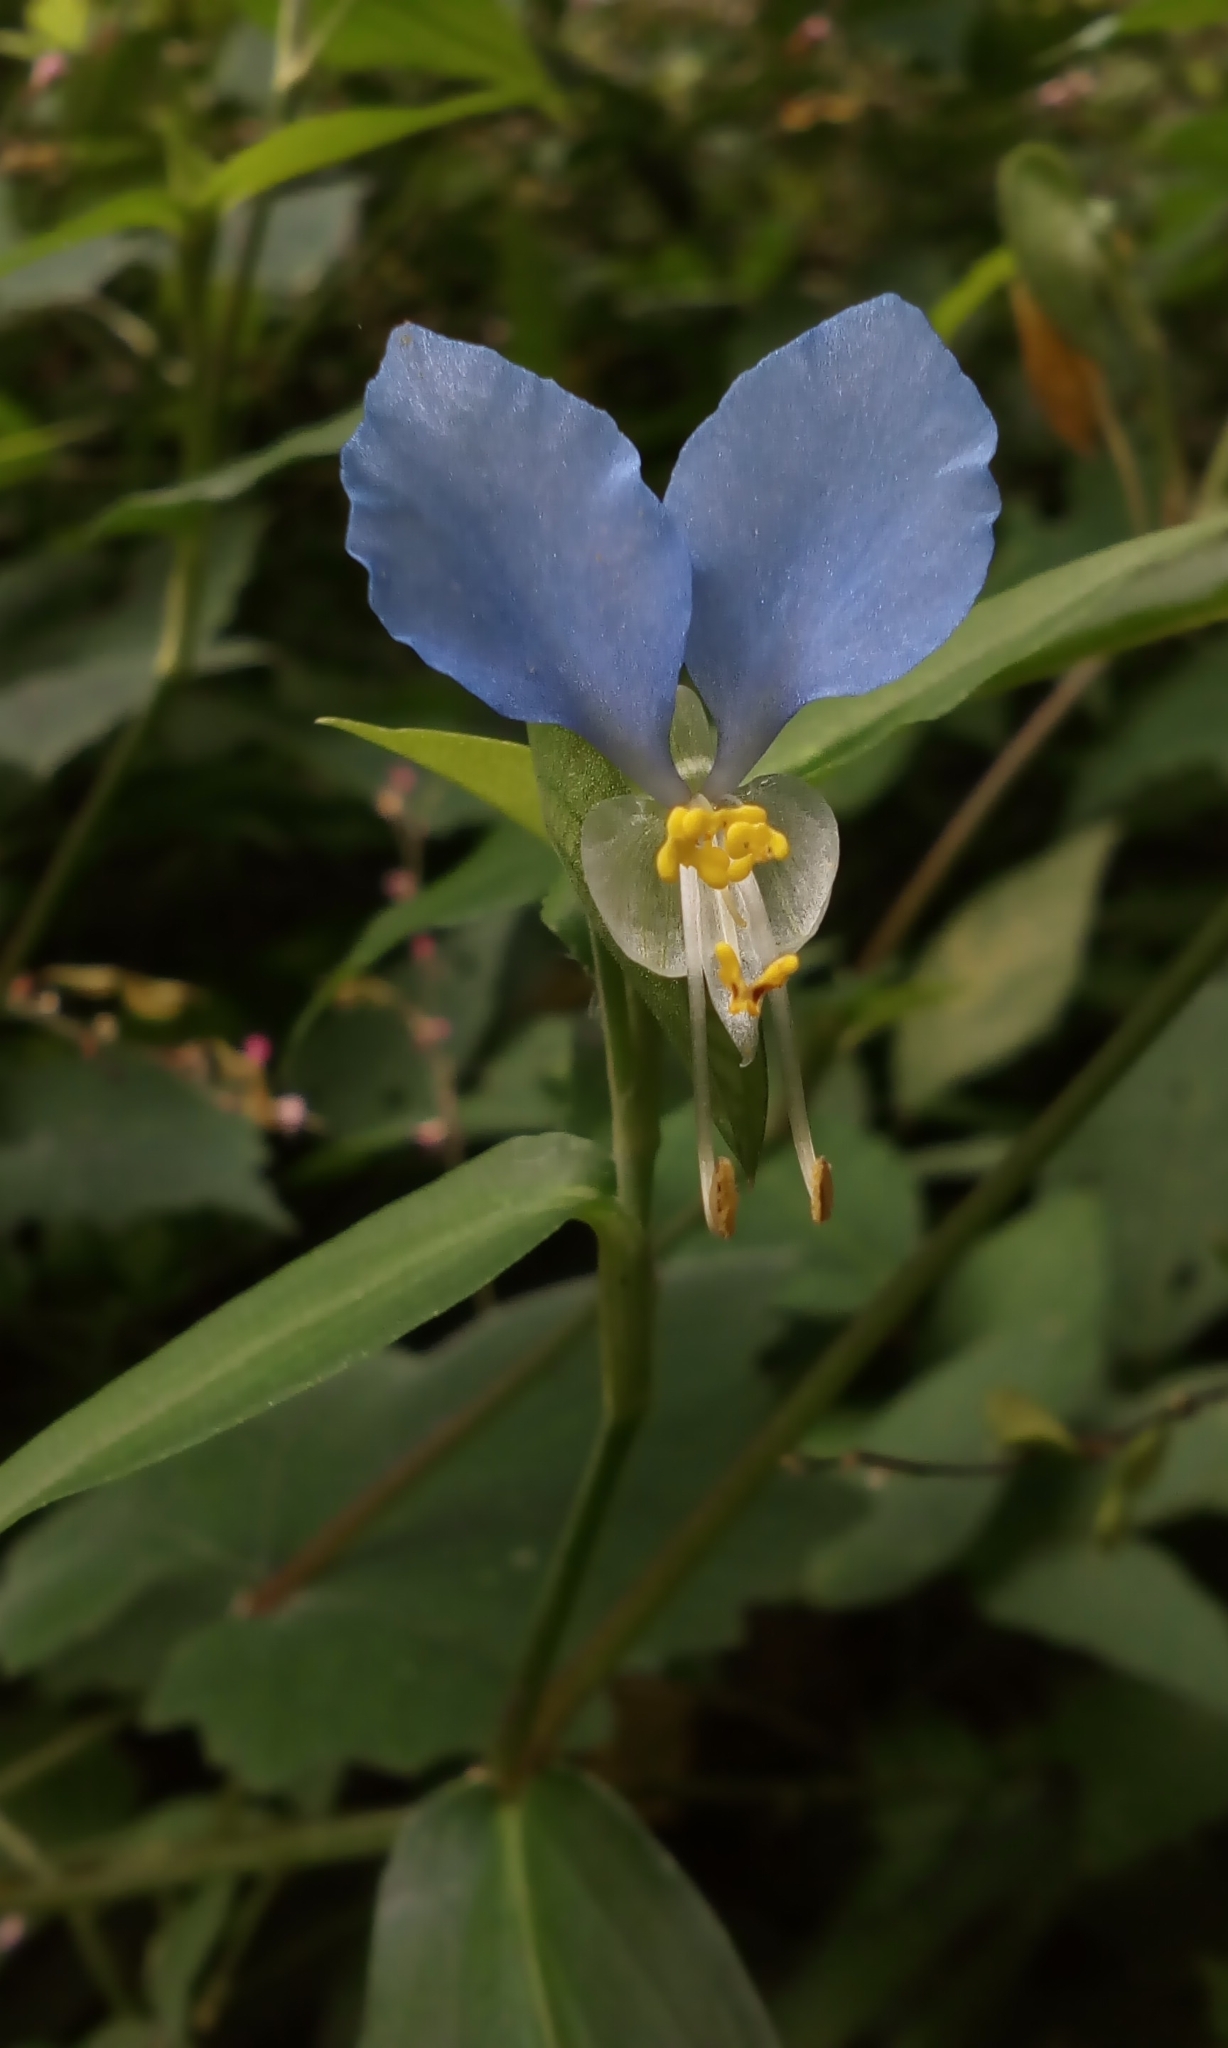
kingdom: Plantae
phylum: Tracheophyta
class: Liliopsida
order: Commelinales
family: Commelinaceae
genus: Commelina
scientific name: Commelina communis
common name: Asiatic dayflower
